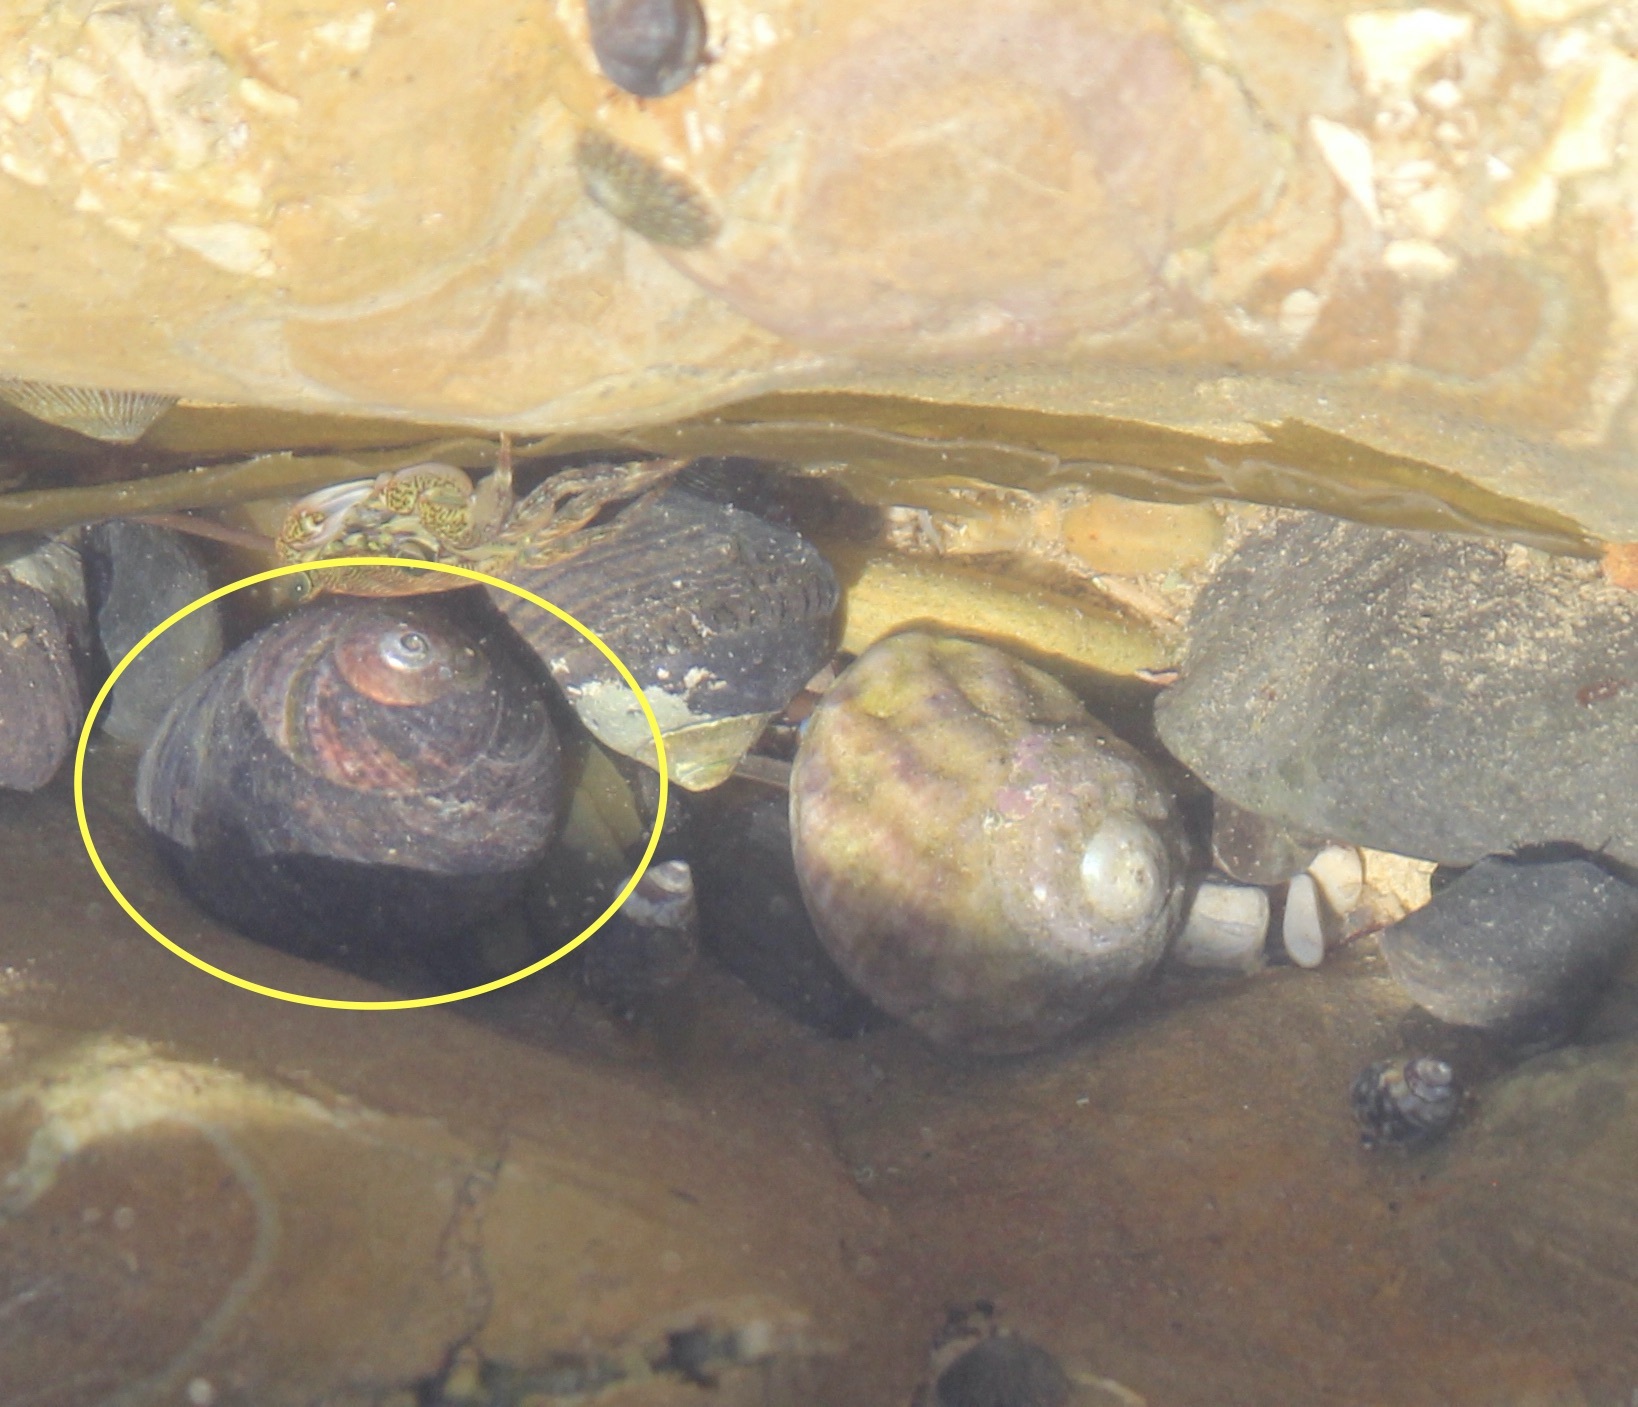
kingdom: Animalia
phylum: Mollusca
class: Gastropoda
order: Trochida
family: Tegulidae
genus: Tegula
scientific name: Tegula funebralis
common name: Black tegula
